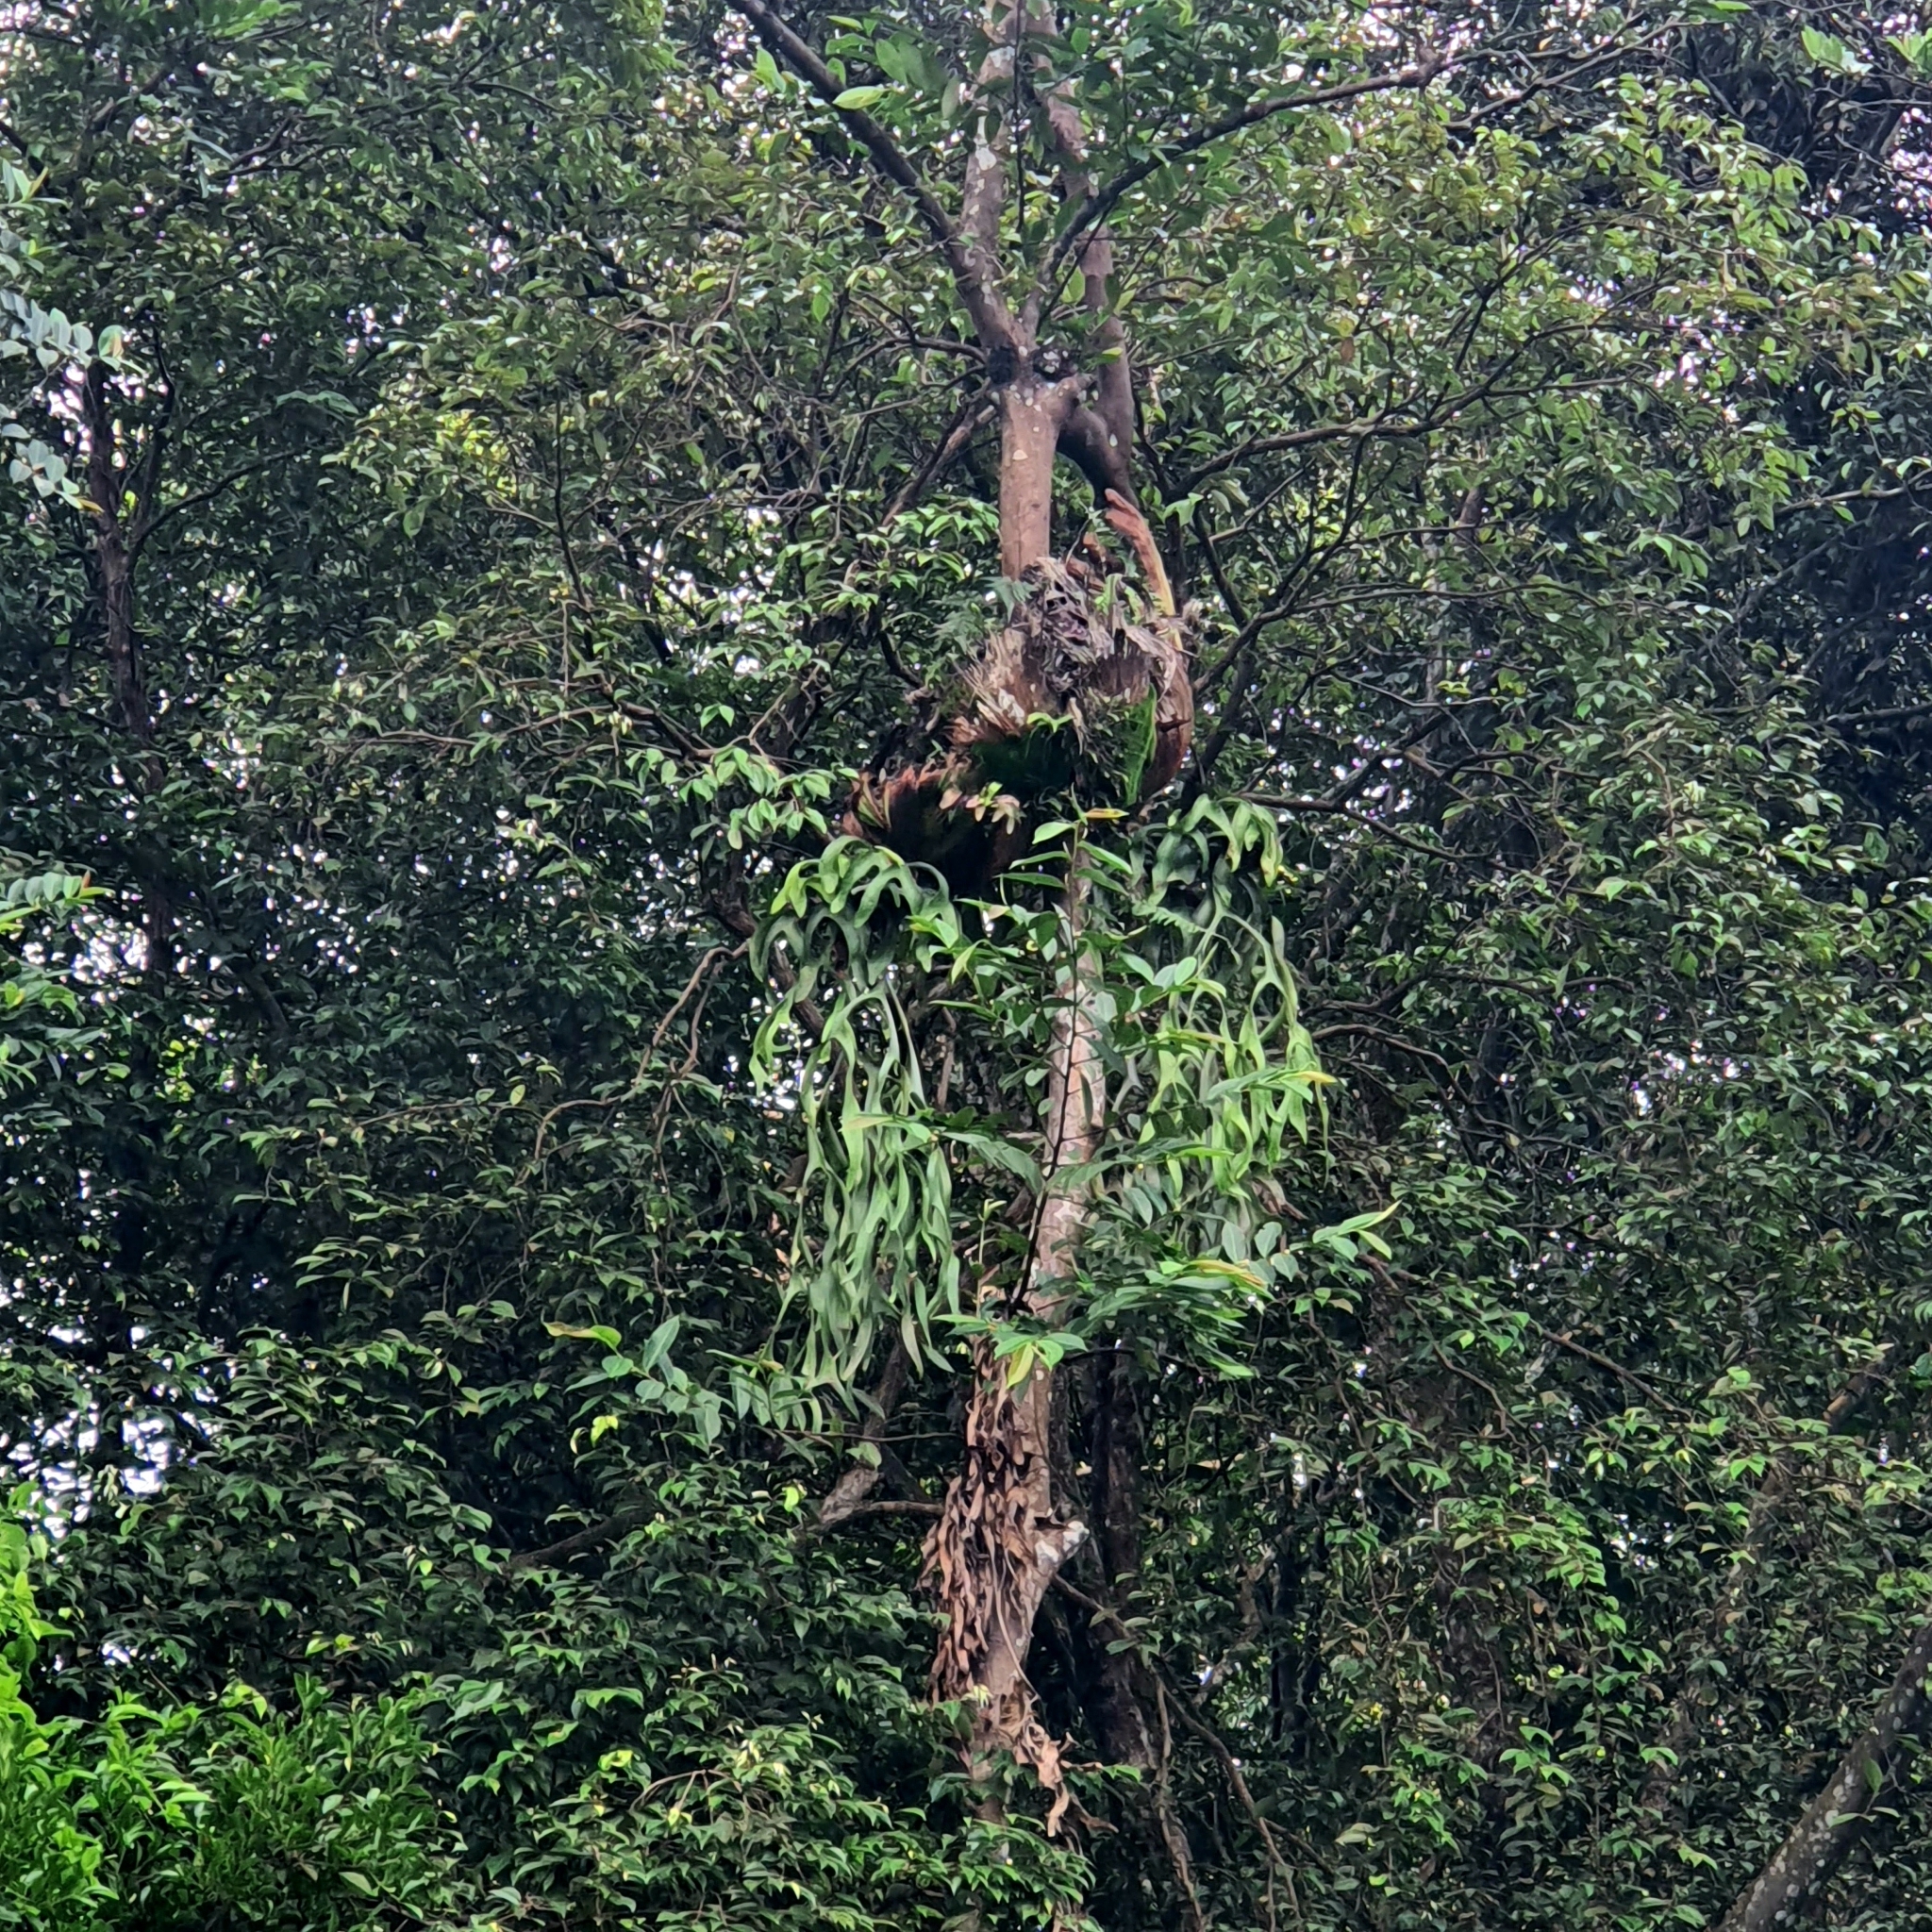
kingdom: Plantae
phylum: Tracheophyta
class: Polypodiopsida
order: Polypodiales
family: Polypodiaceae
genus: Platycerium
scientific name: Platycerium coronarium
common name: Elkhorn fern
